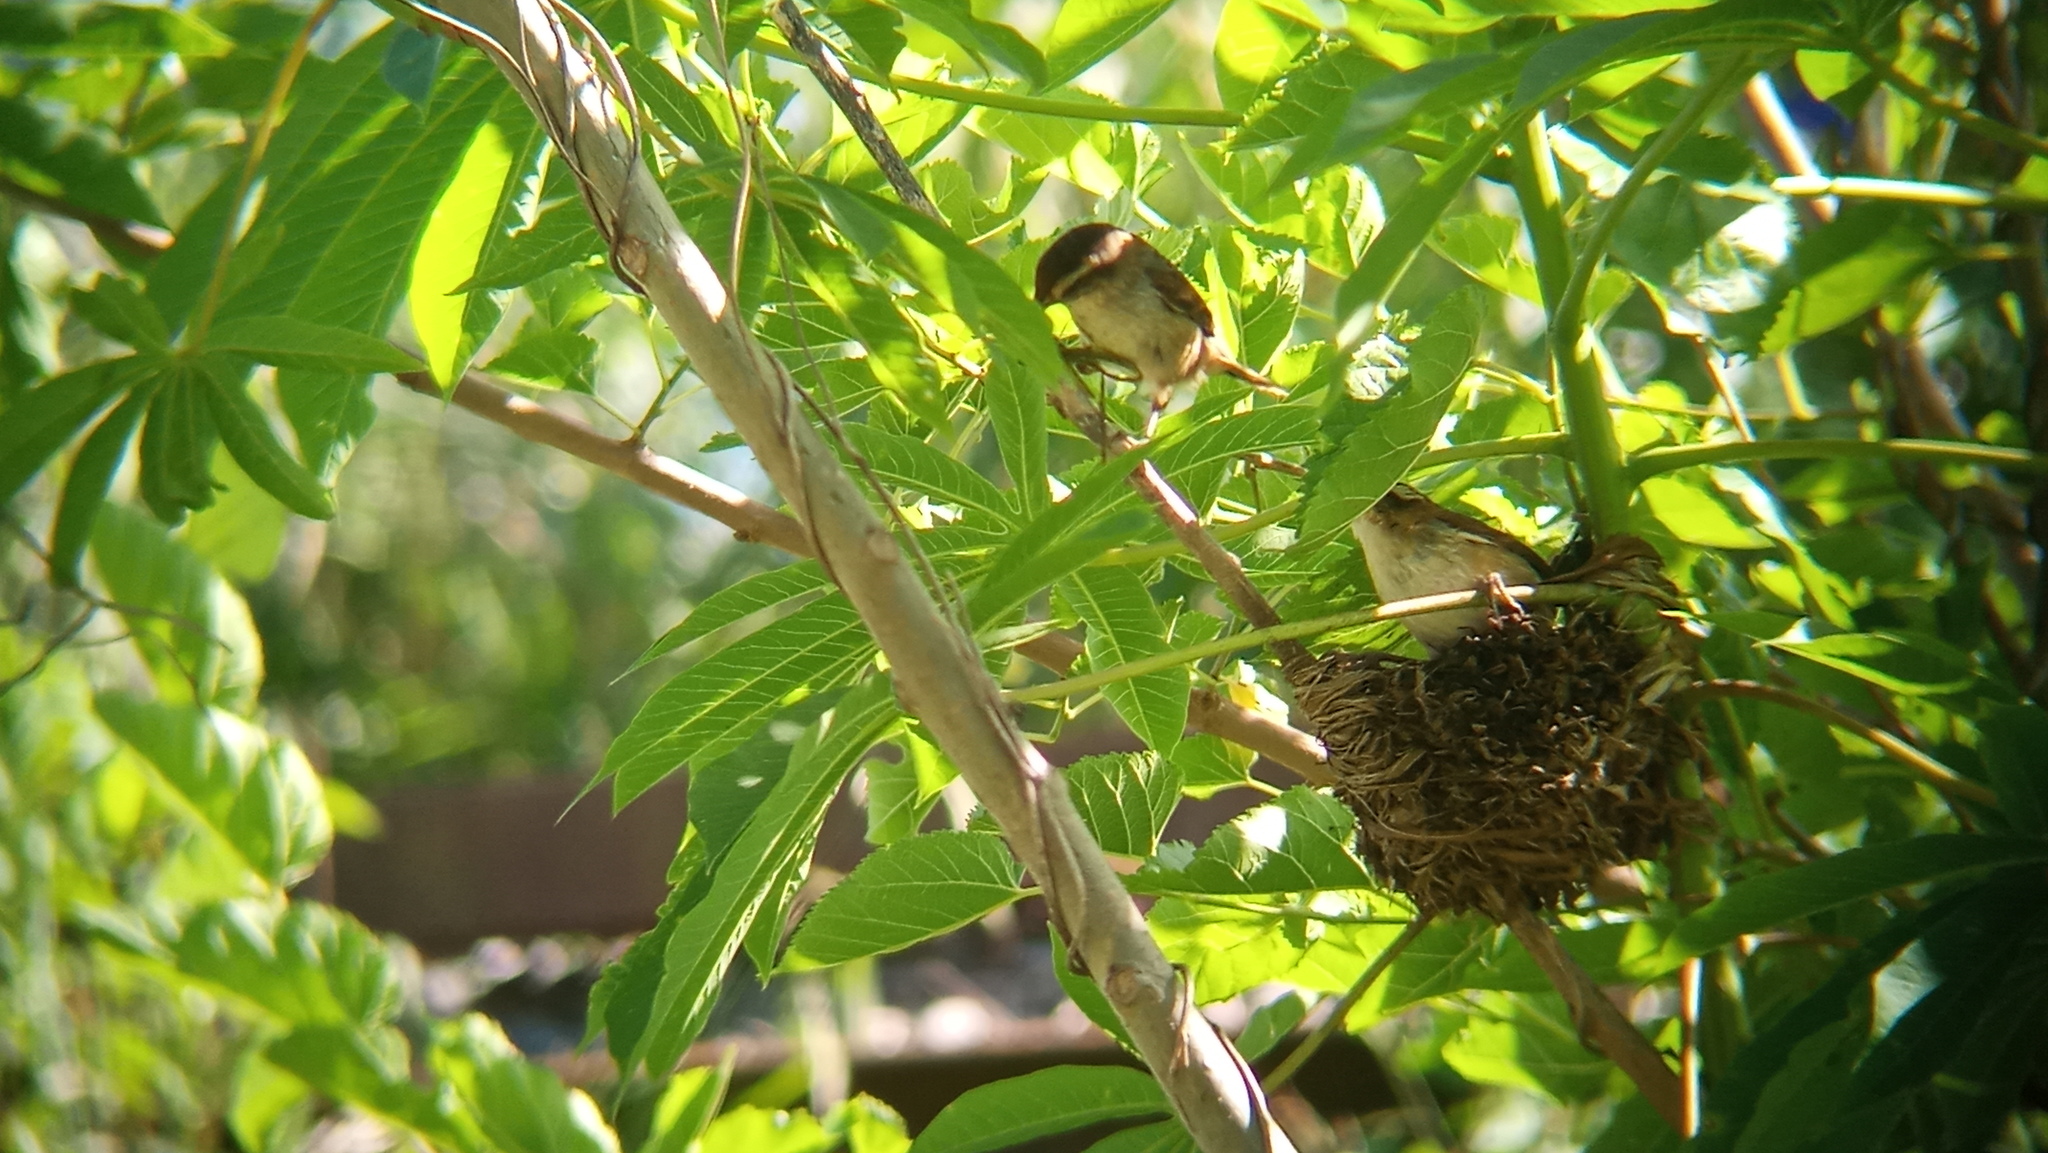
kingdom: Animalia
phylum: Chordata
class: Aves
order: Passeriformes
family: Furnariidae
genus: Phleocryptes
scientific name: Phleocryptes melanops
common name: Wren-like rushbird
